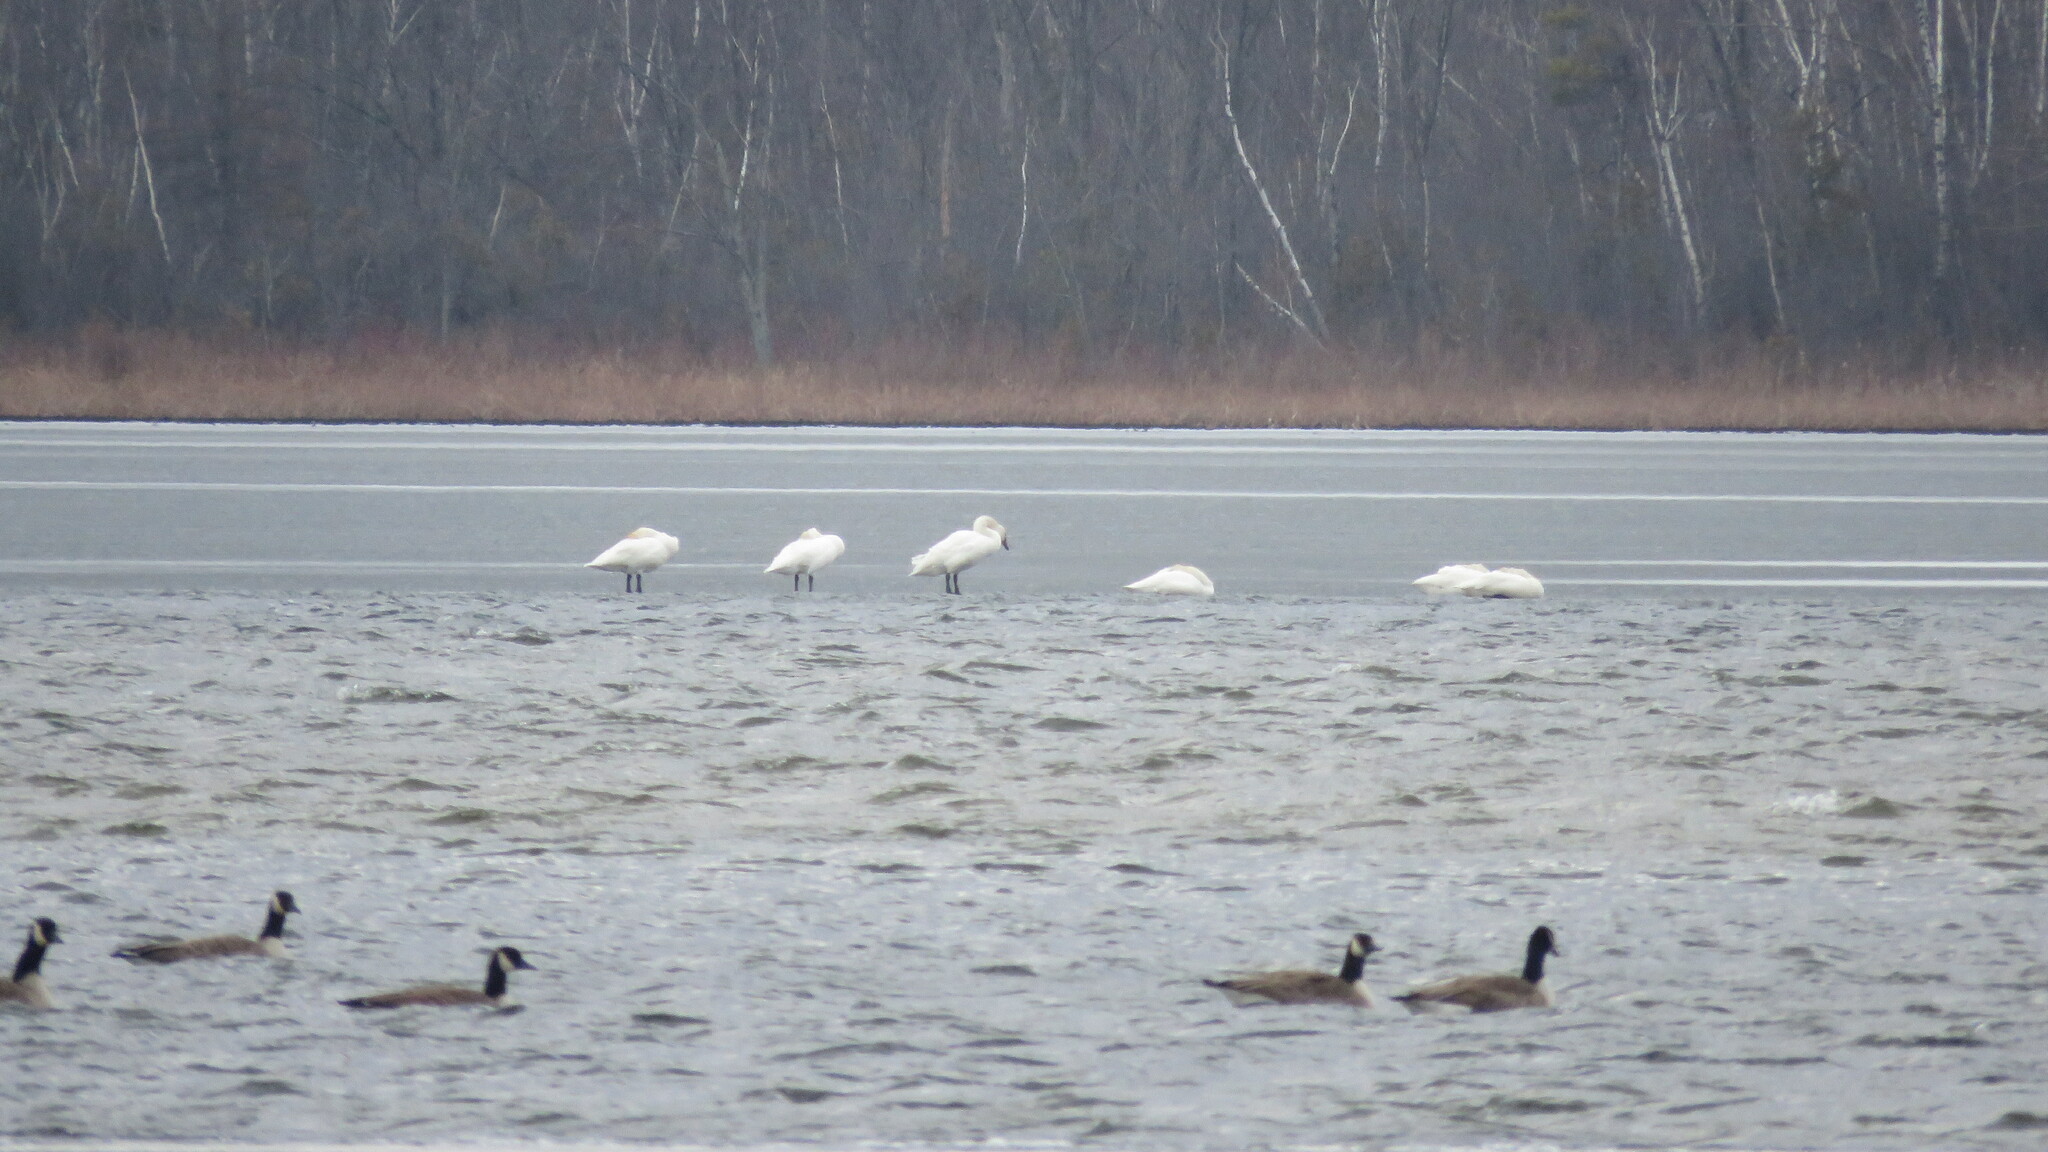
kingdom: Animalia
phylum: Chordata
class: Aves
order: Anseriformes
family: Anatidae
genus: Cygnus
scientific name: Cygnus buccinator
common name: Trumpeter swan
